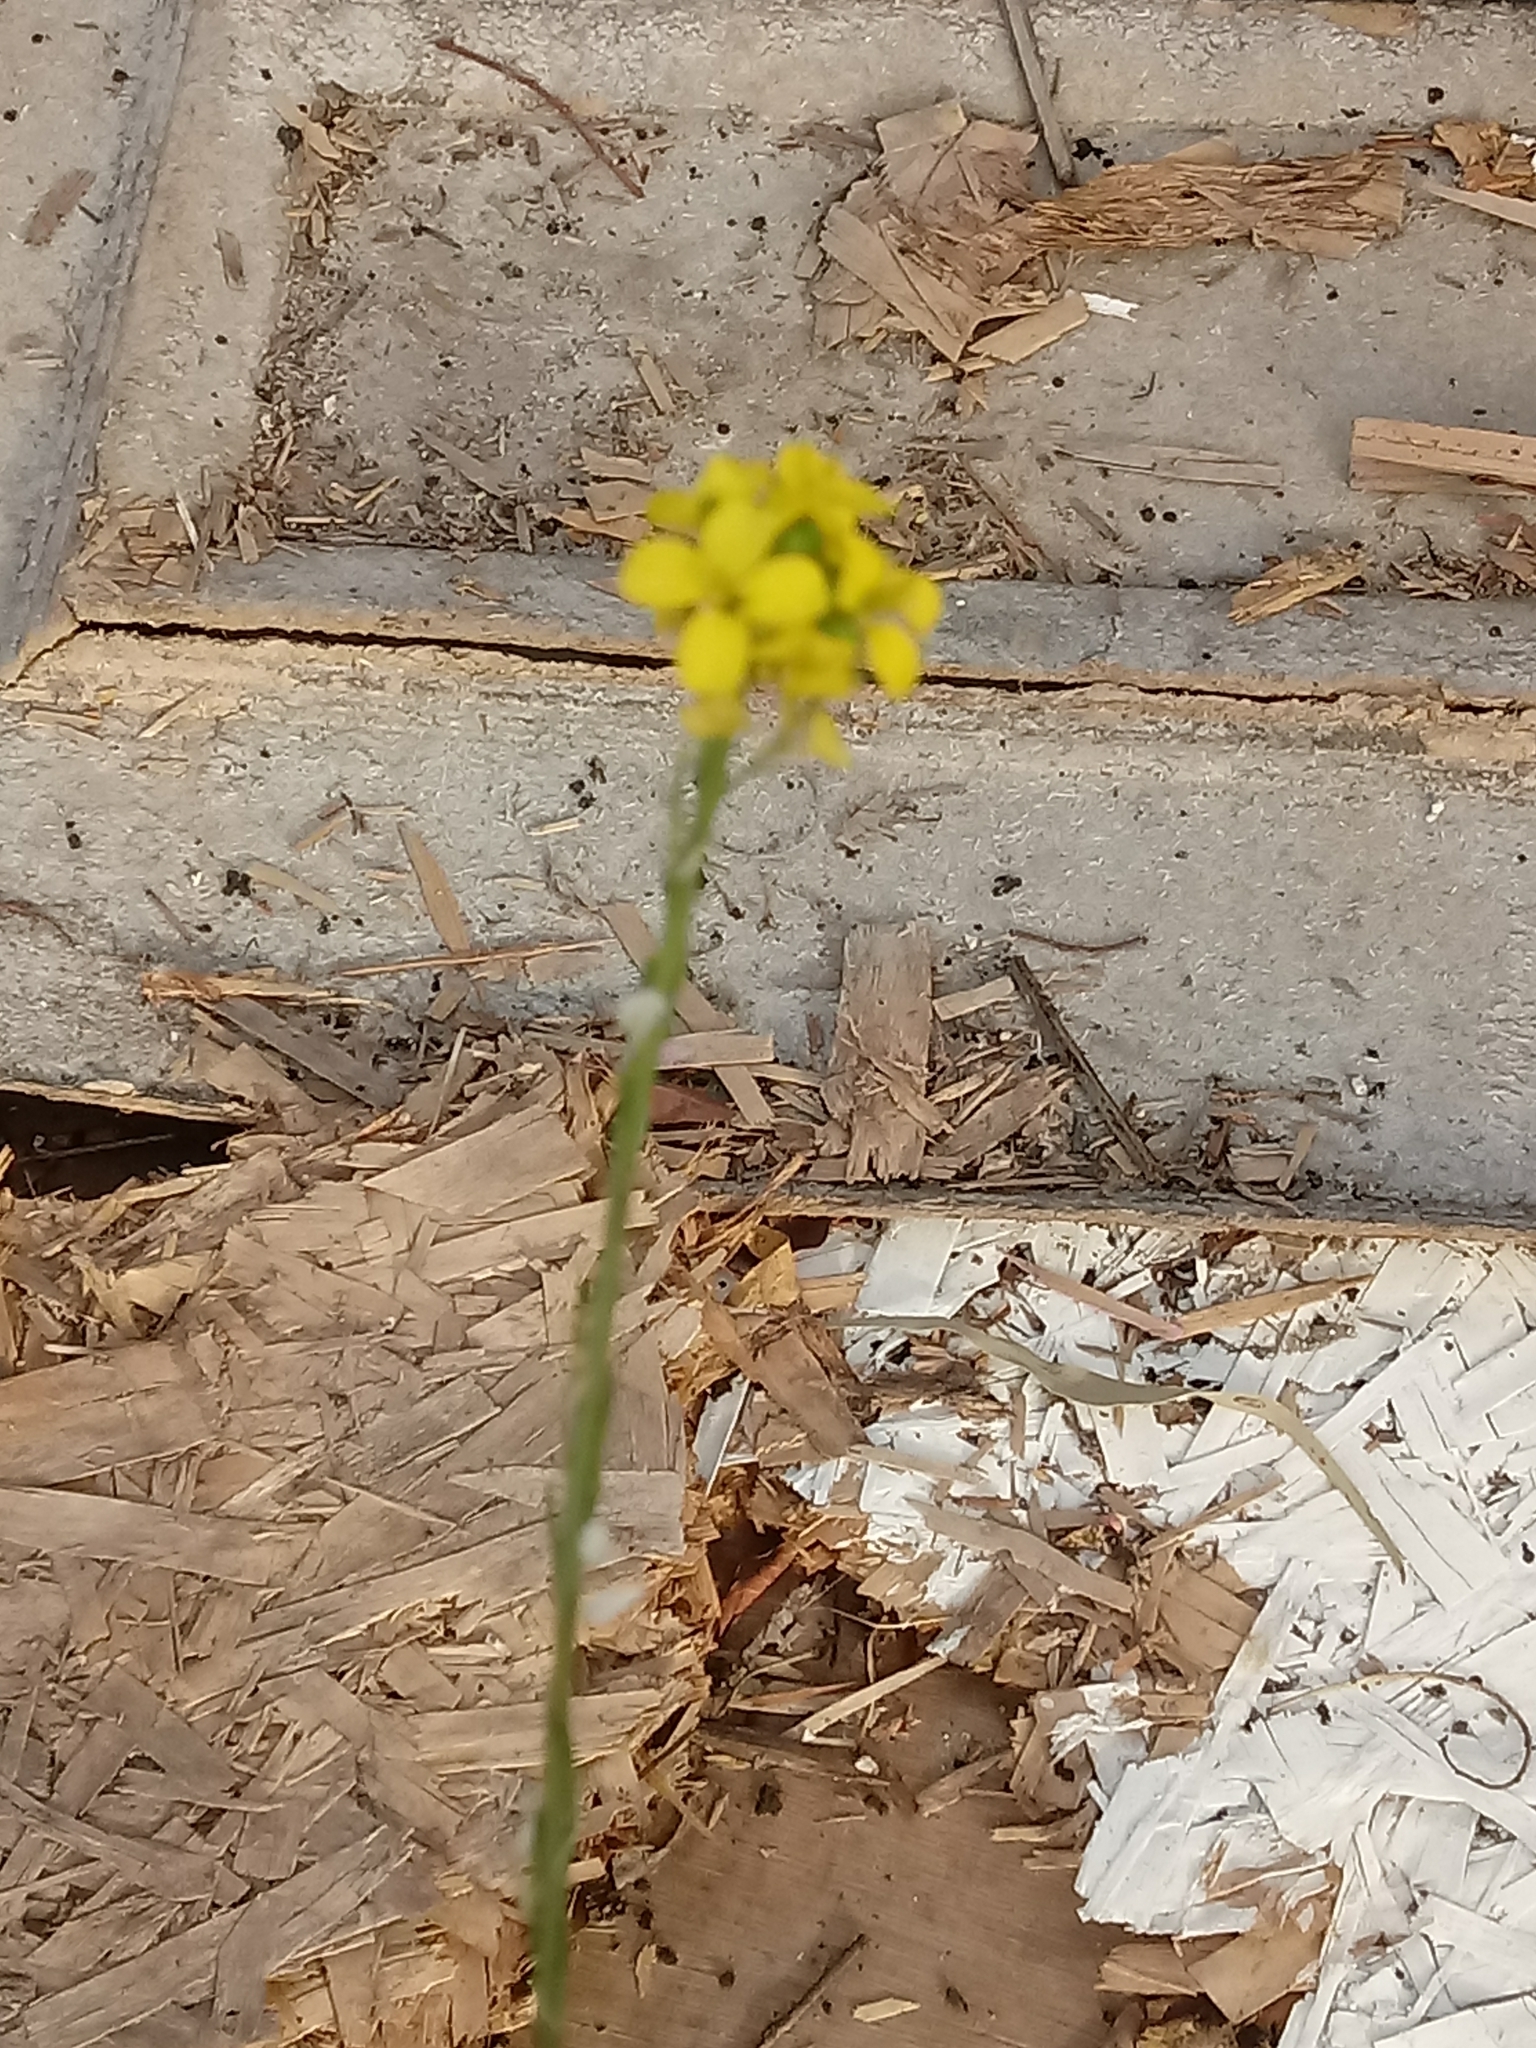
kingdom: Plantae
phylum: Tracheophyta
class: Magnoliopsida
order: Brassicales
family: Brassicaceae
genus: Hirschfeldia
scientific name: Hirschfeldia incana
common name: Hoary mustard
